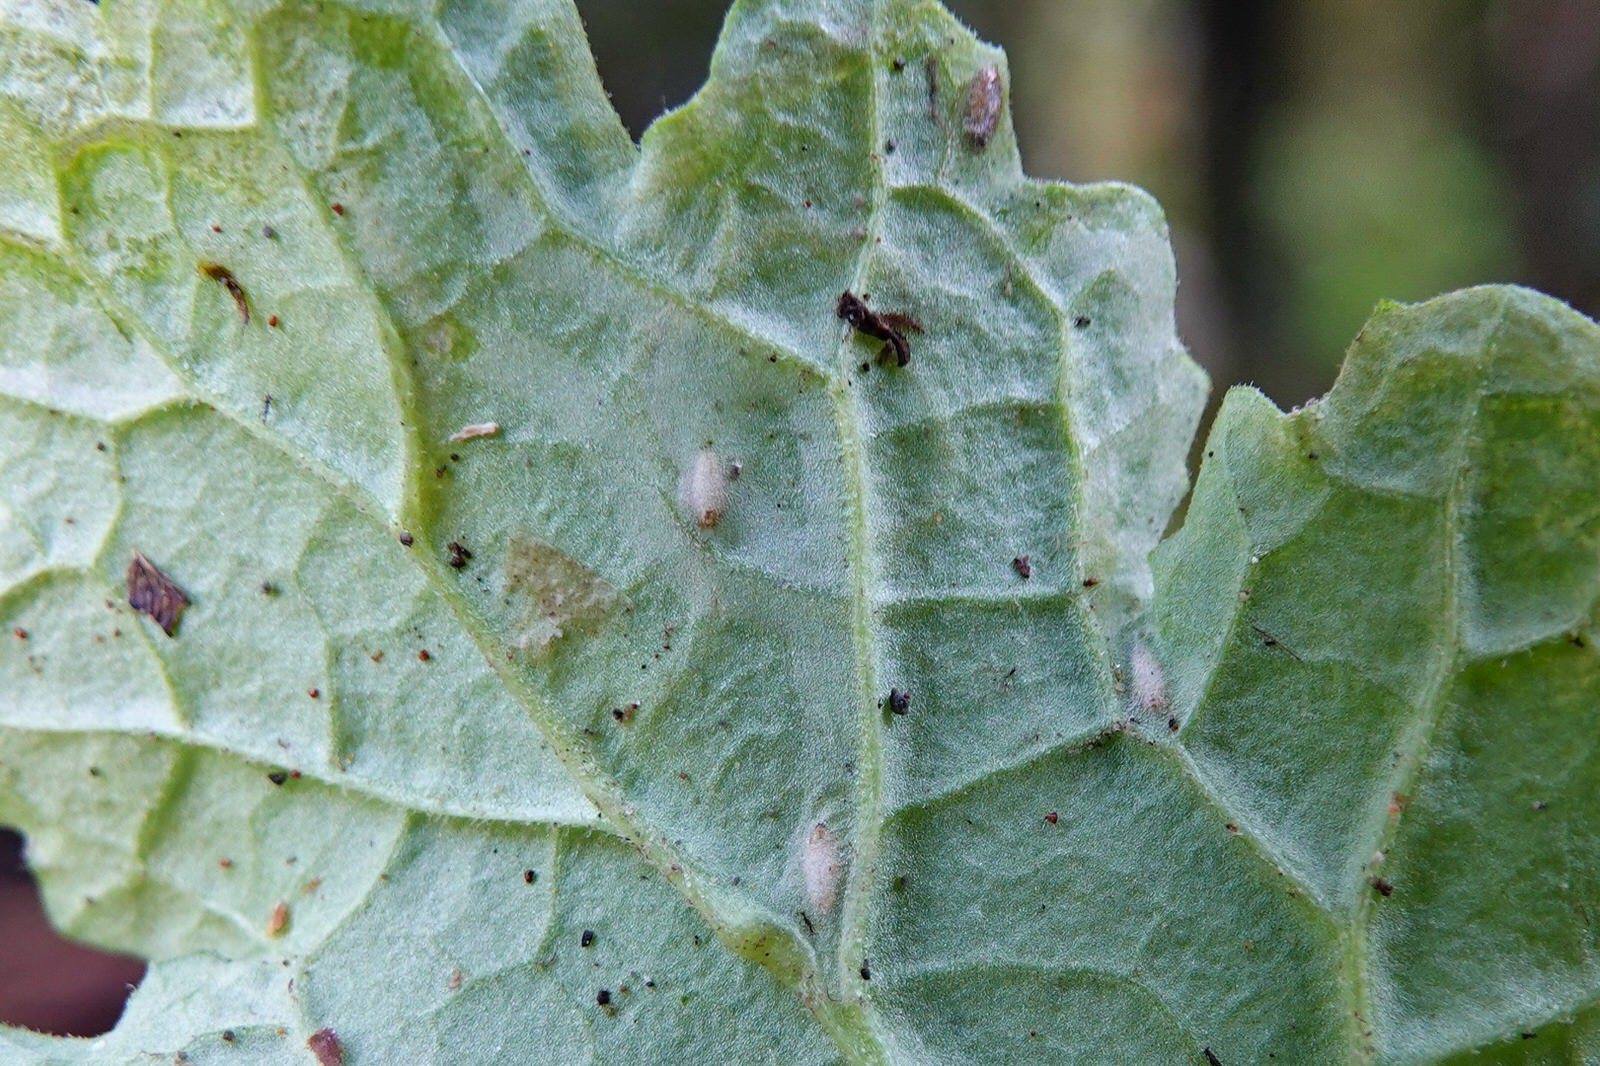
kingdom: Plantae
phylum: Tracheophyta
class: Magnoliopsida
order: Asterales
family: Asteraceae
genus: Jacobaea
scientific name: Jacobaea vulgaris
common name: Stinking willie
